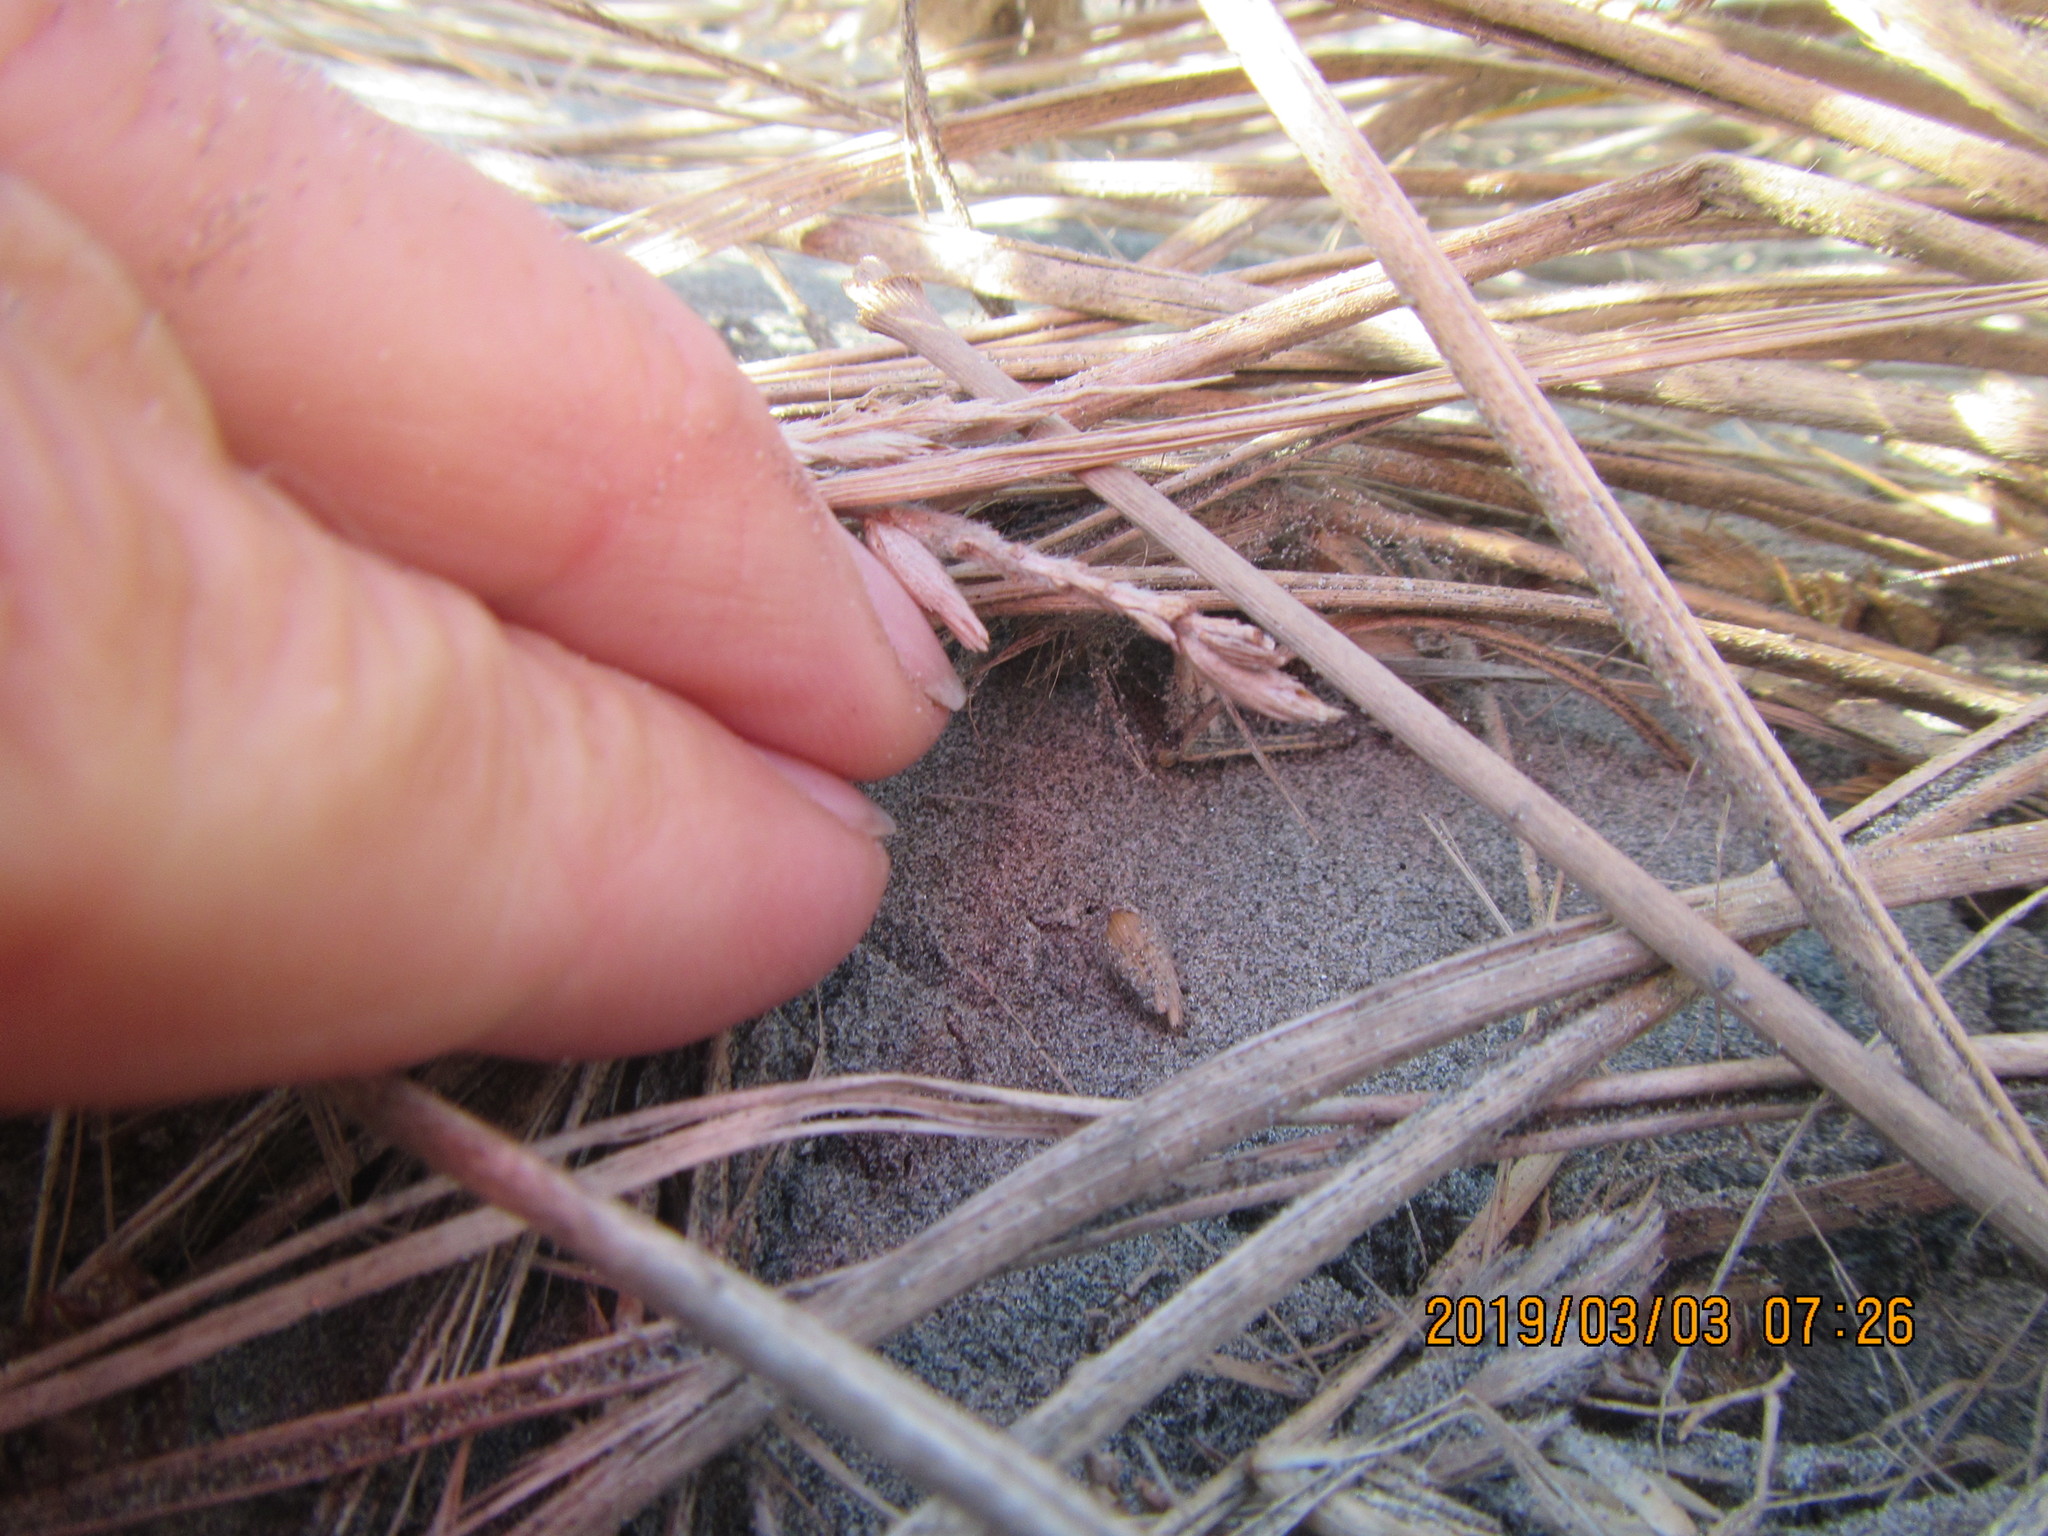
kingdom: Animalia
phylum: Arthropoda
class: Arachnida
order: Araneae
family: Theridiidae
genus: Latrodectus
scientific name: Latrodectus katipo
